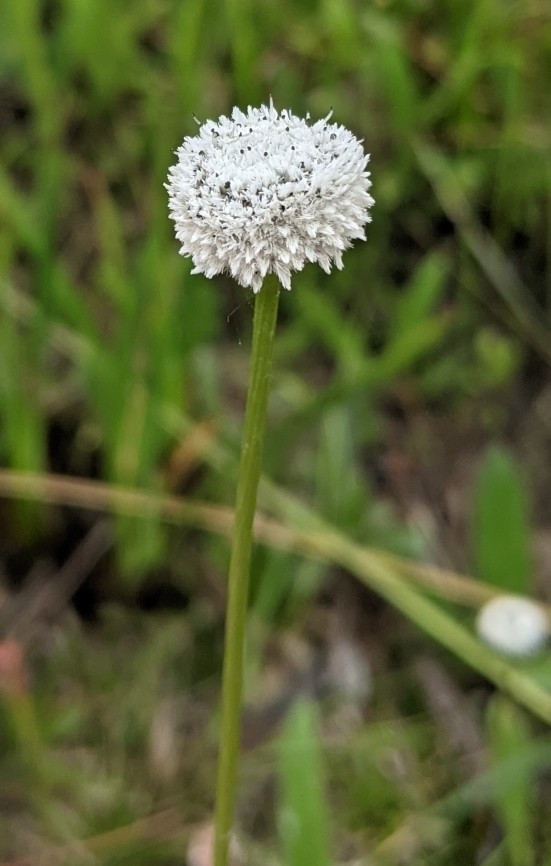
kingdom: Plantae
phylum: Tracheophyta
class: Liliopsida
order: Poales
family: Eriocaulaceae
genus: Eriocaulon
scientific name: Eriocaulon compressum
